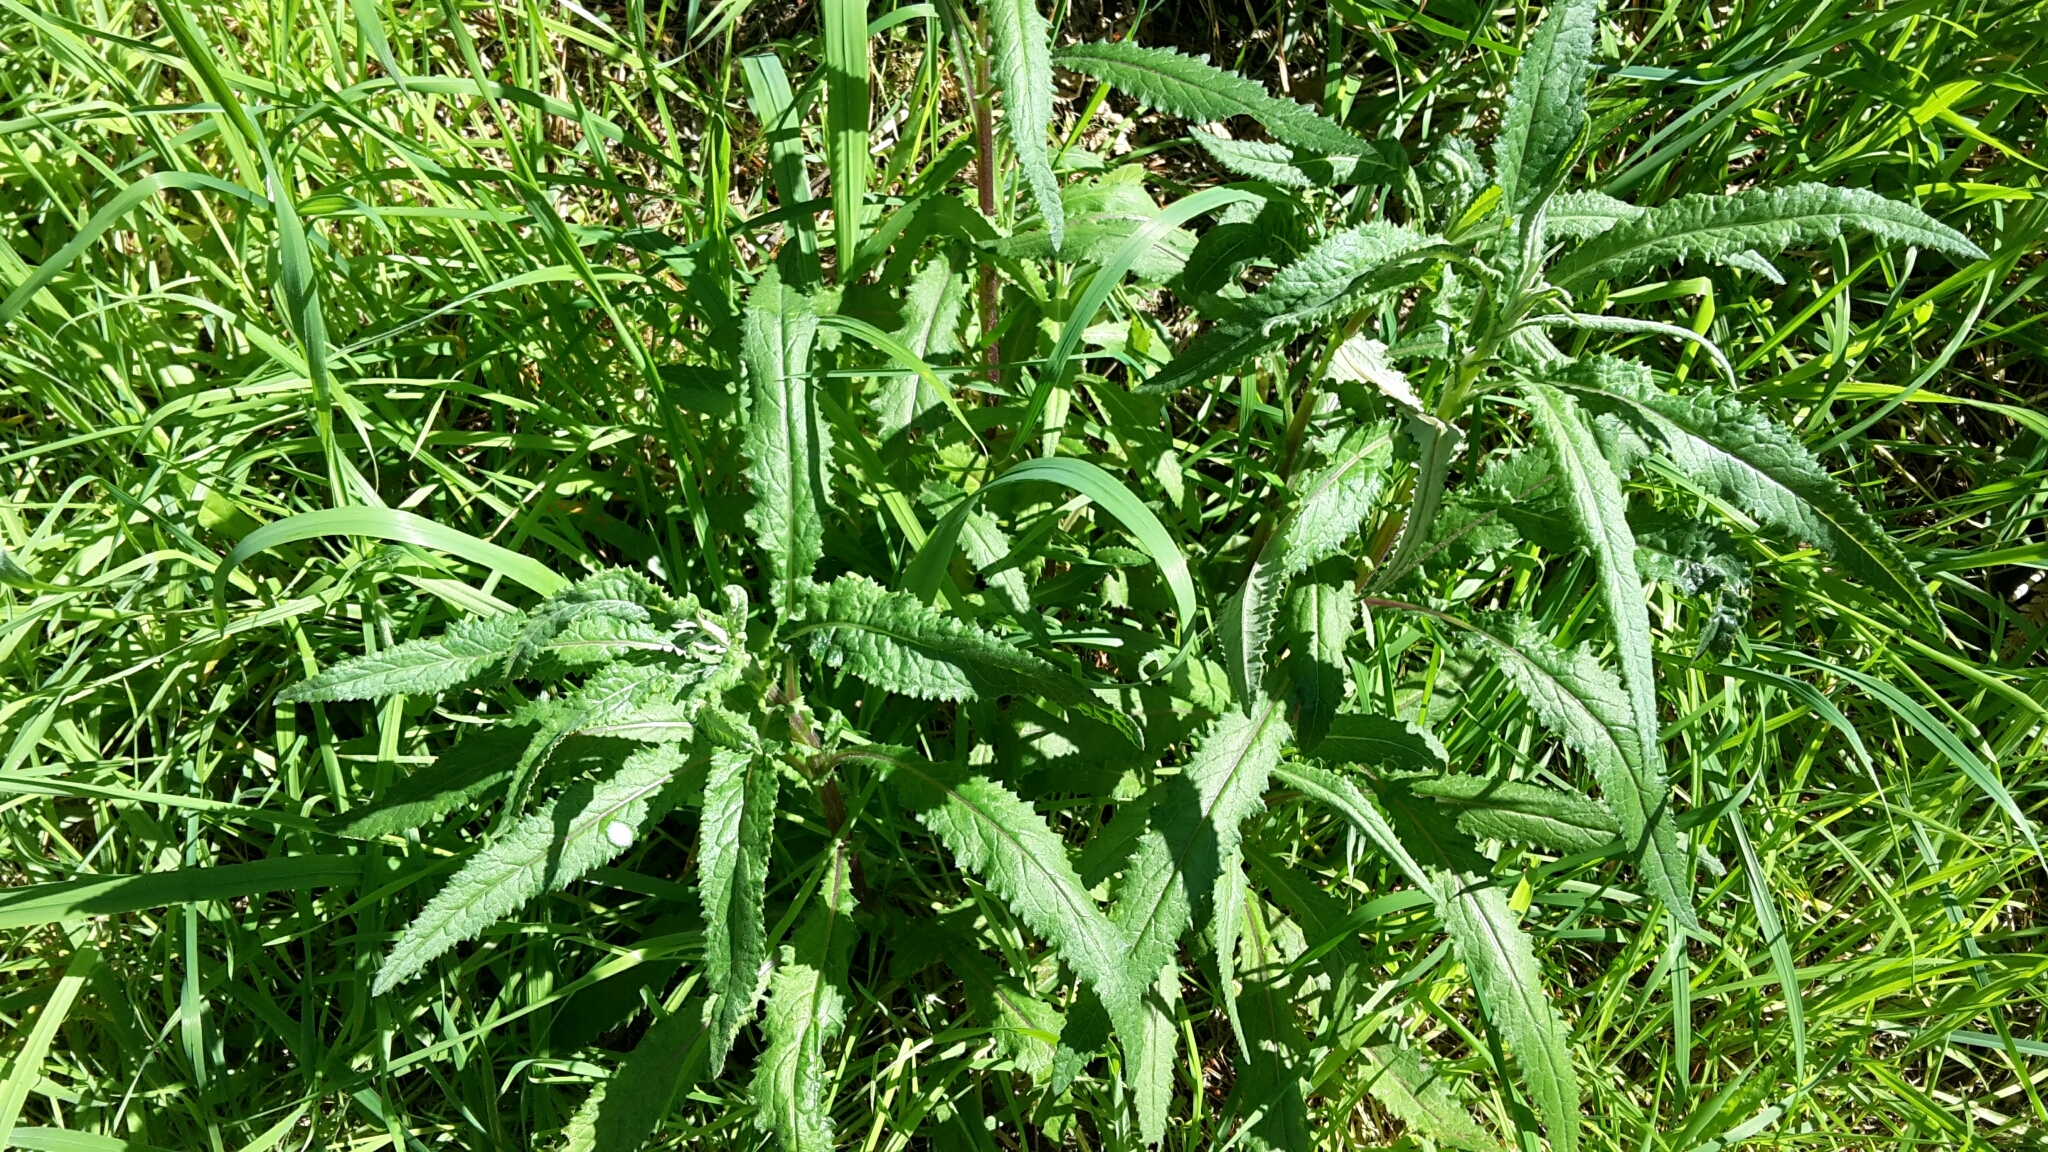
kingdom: Plantae
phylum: Tracheophyta
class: Magnoliopsida
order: Asterales
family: Asteraceae
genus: Senecio
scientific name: Senecio minimus
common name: Toothed fireweed
